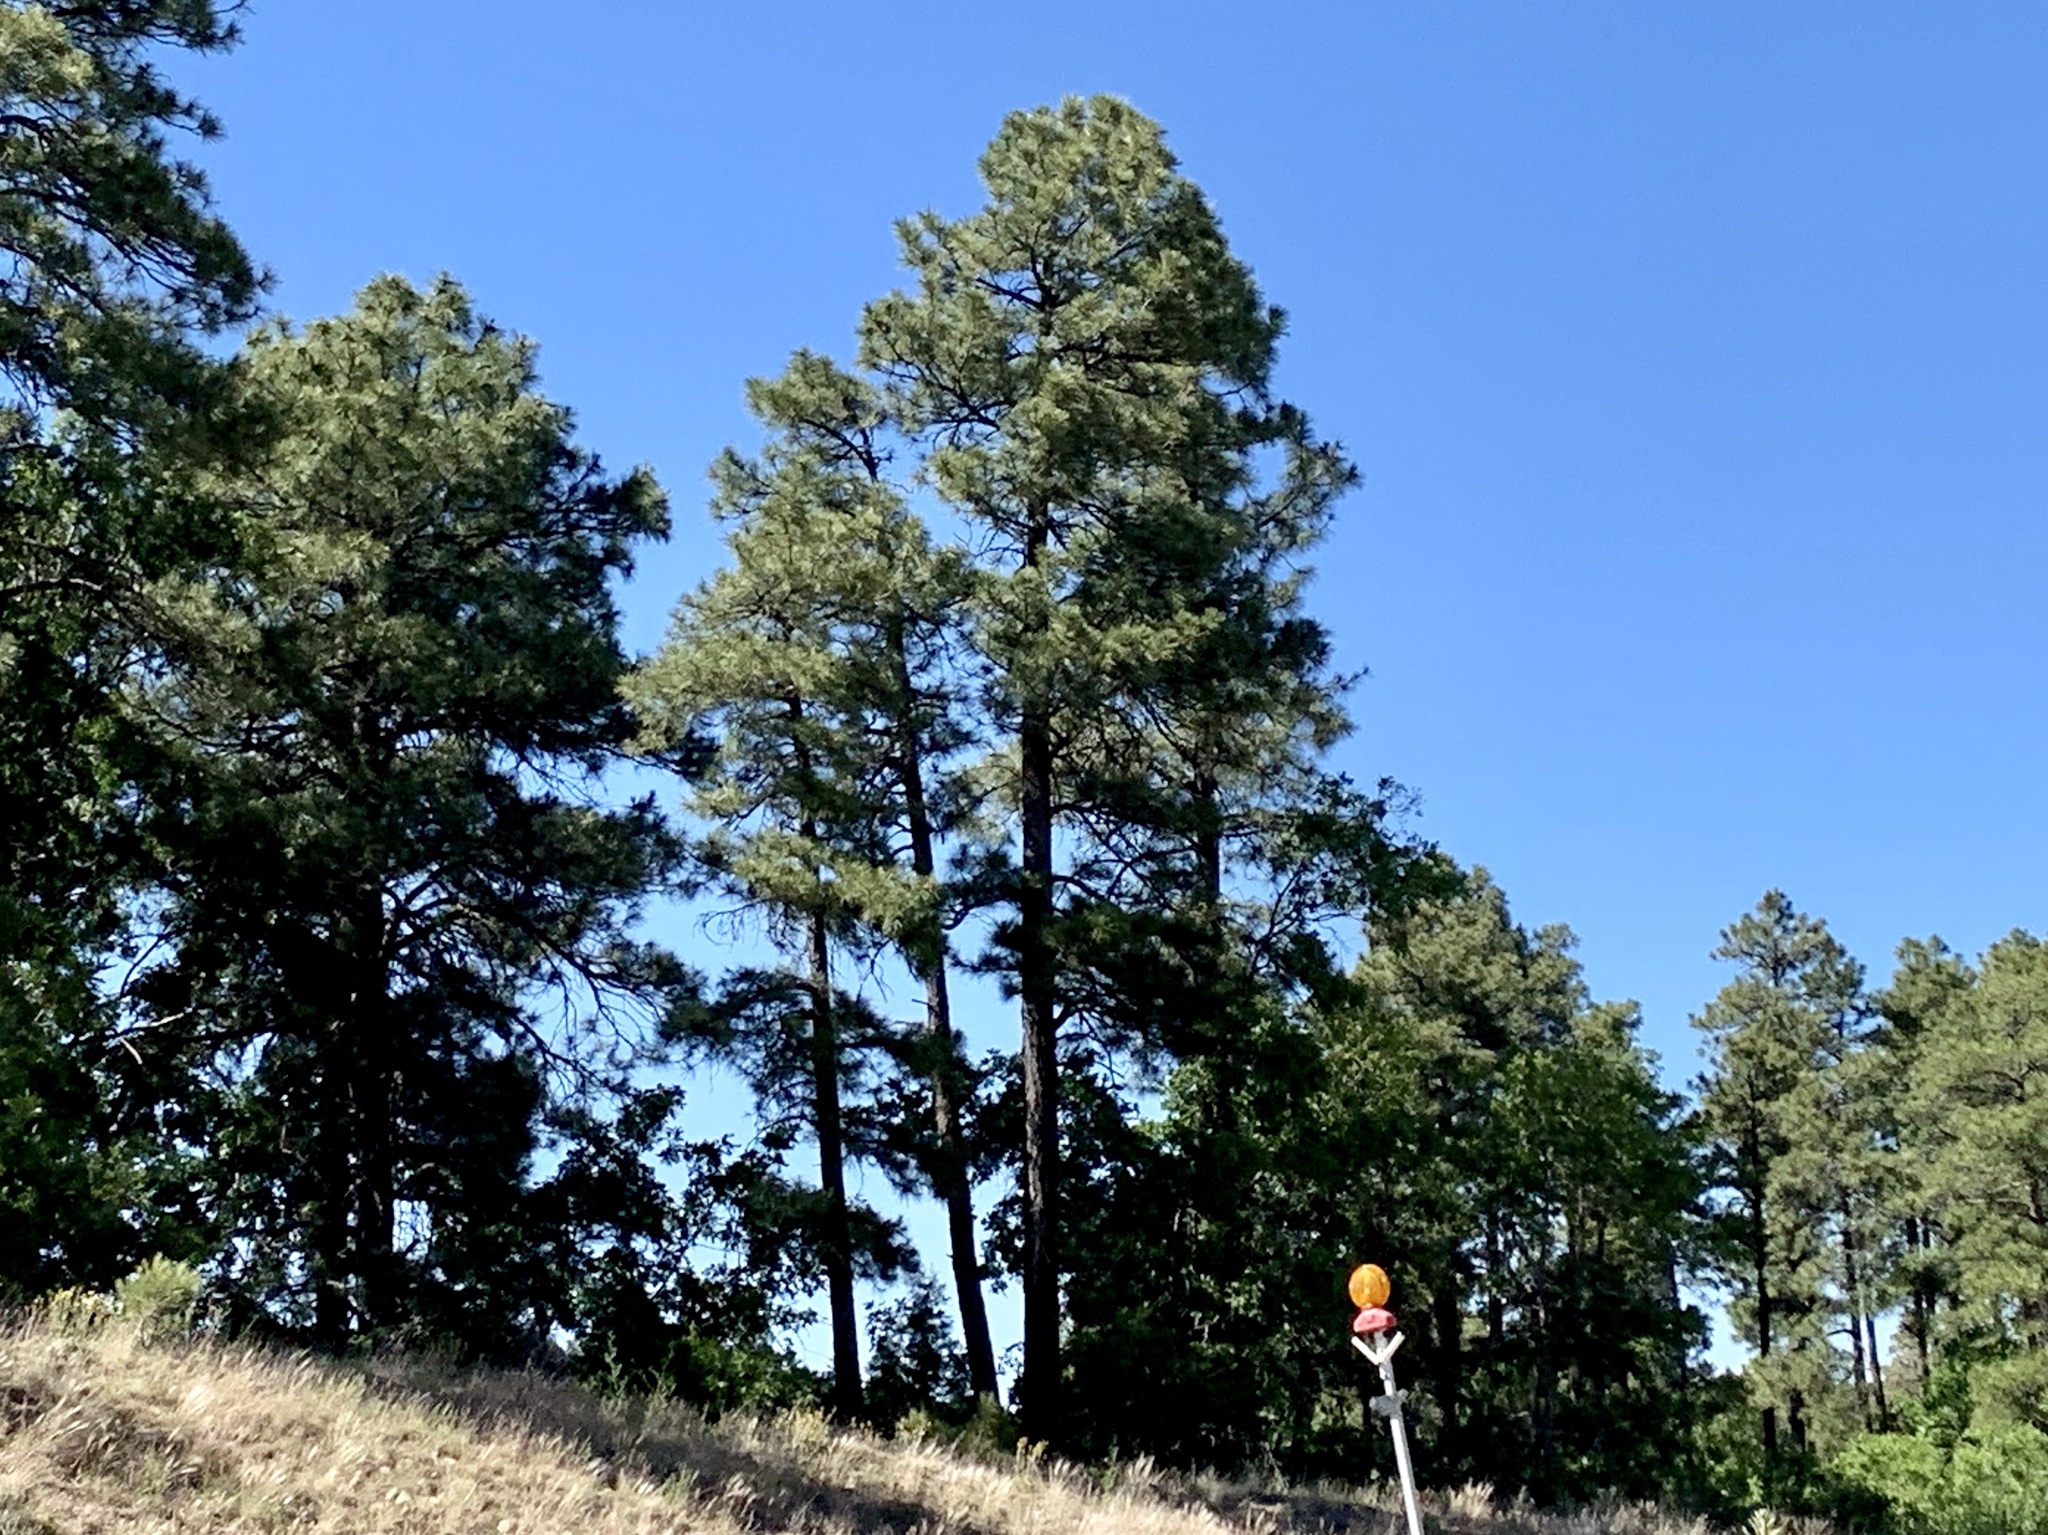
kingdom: Plantae
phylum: Tracheophyta
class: Pinopsida
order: Pinales
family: Pinaceae
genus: Pinus
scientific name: Pinus ponderosa
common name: Western yellow-pine
